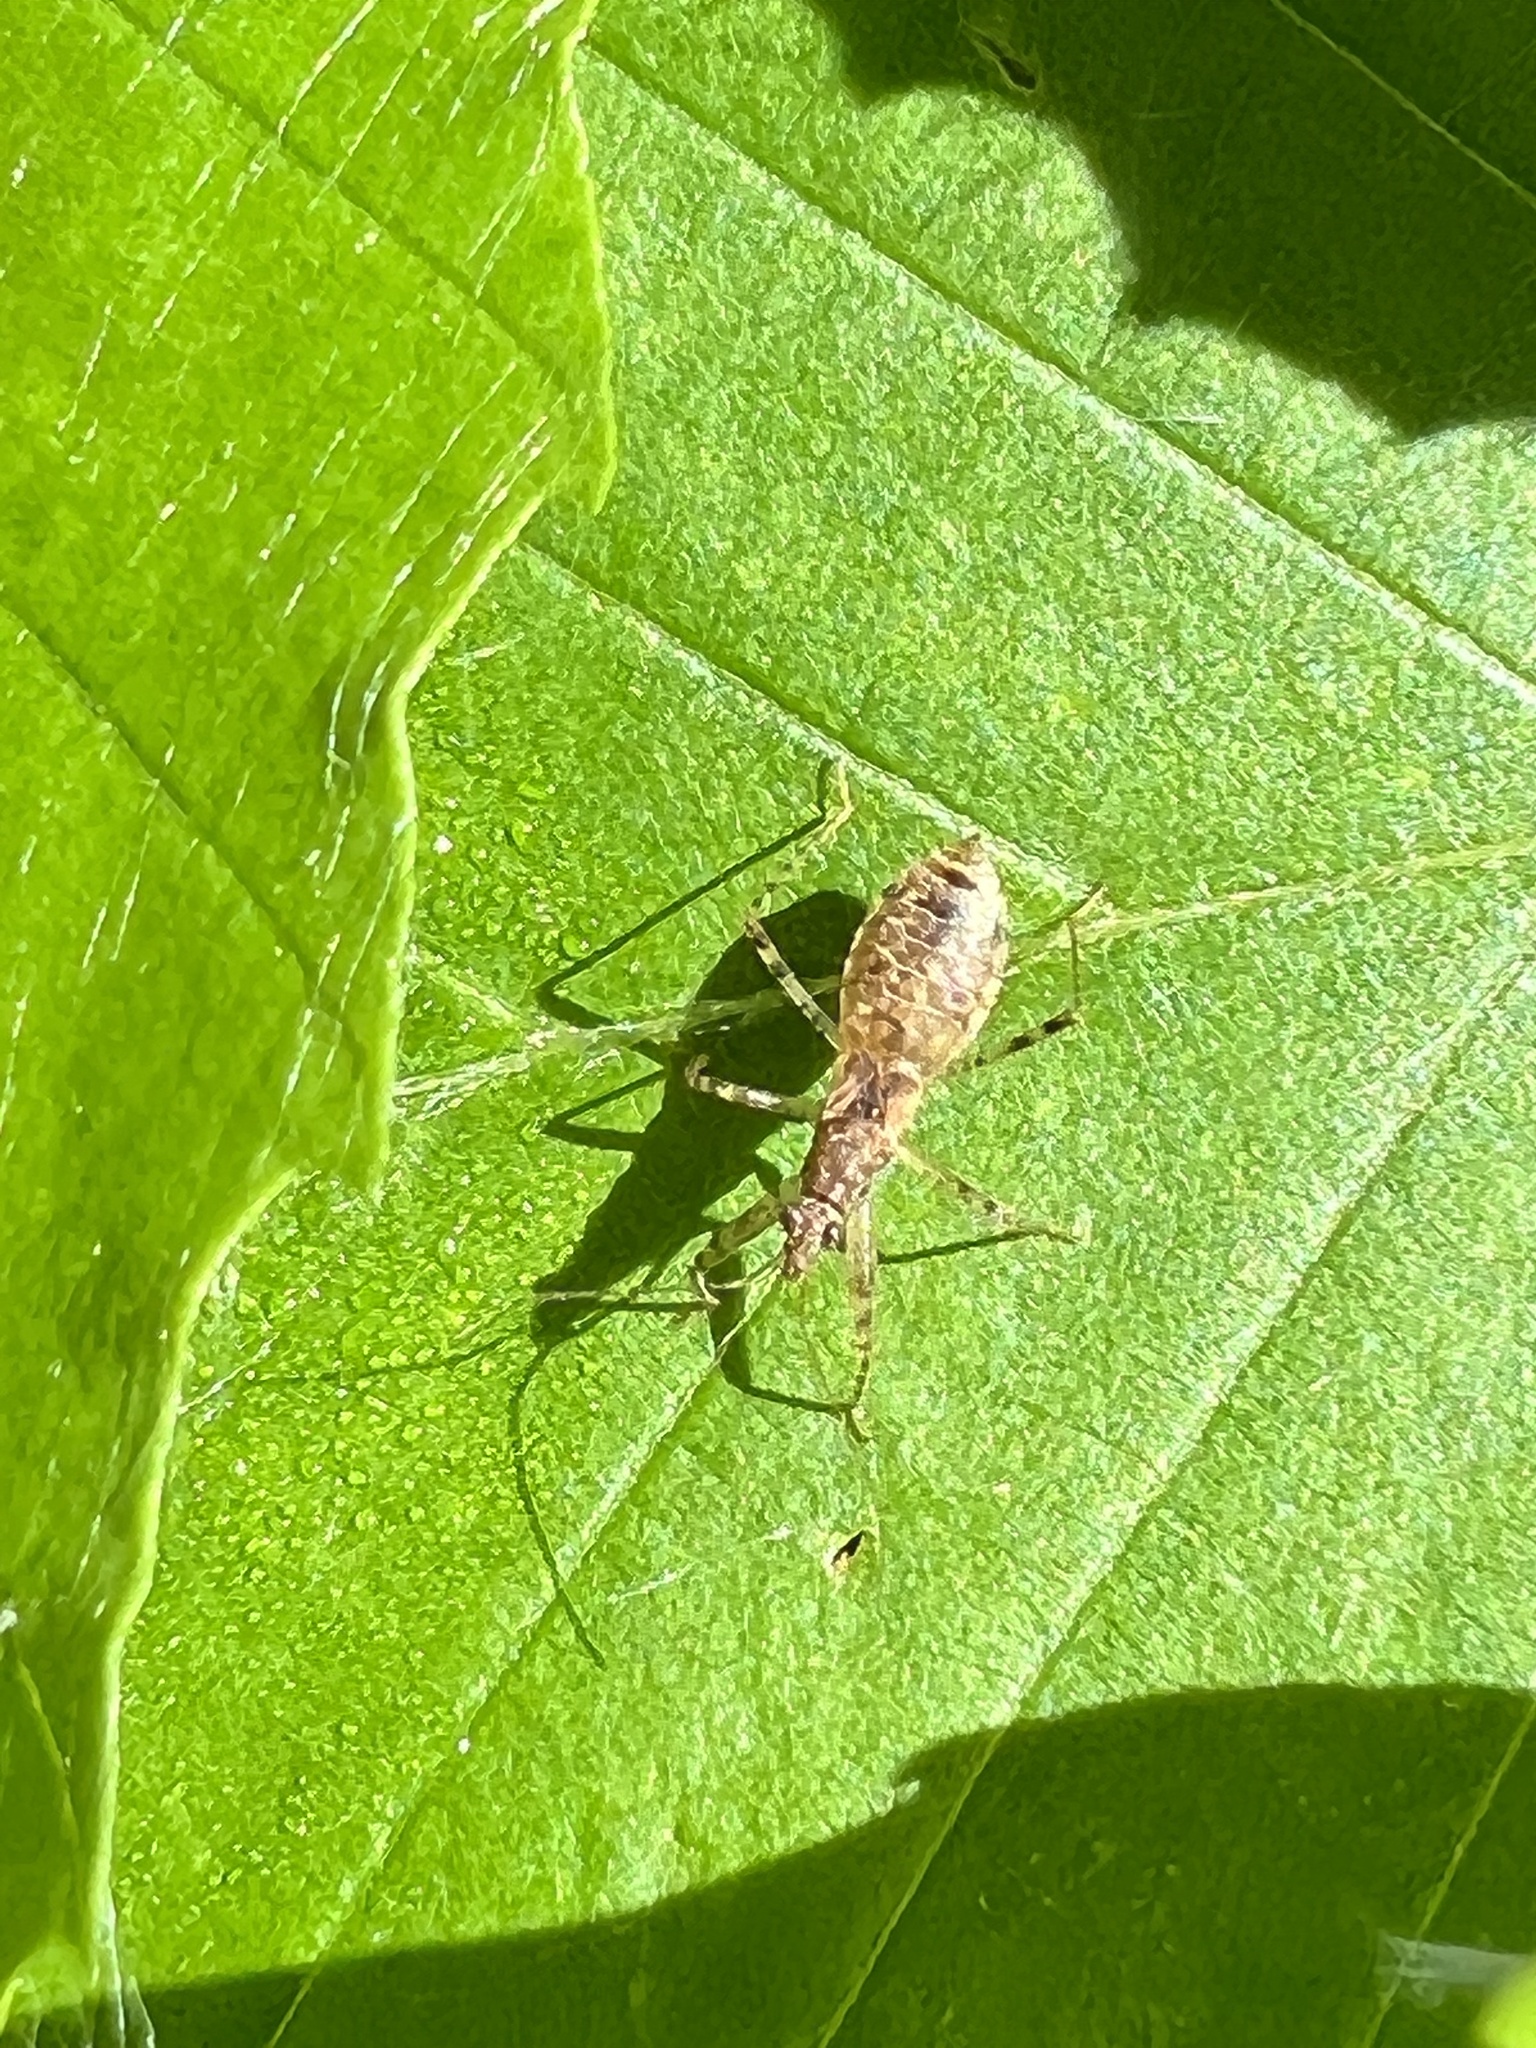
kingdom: Animalia
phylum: Arthropoda
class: Insecta
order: Hemiptera
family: Nabidae
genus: Hoplistoscelis
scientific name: Hoplistoscelis pallescens
